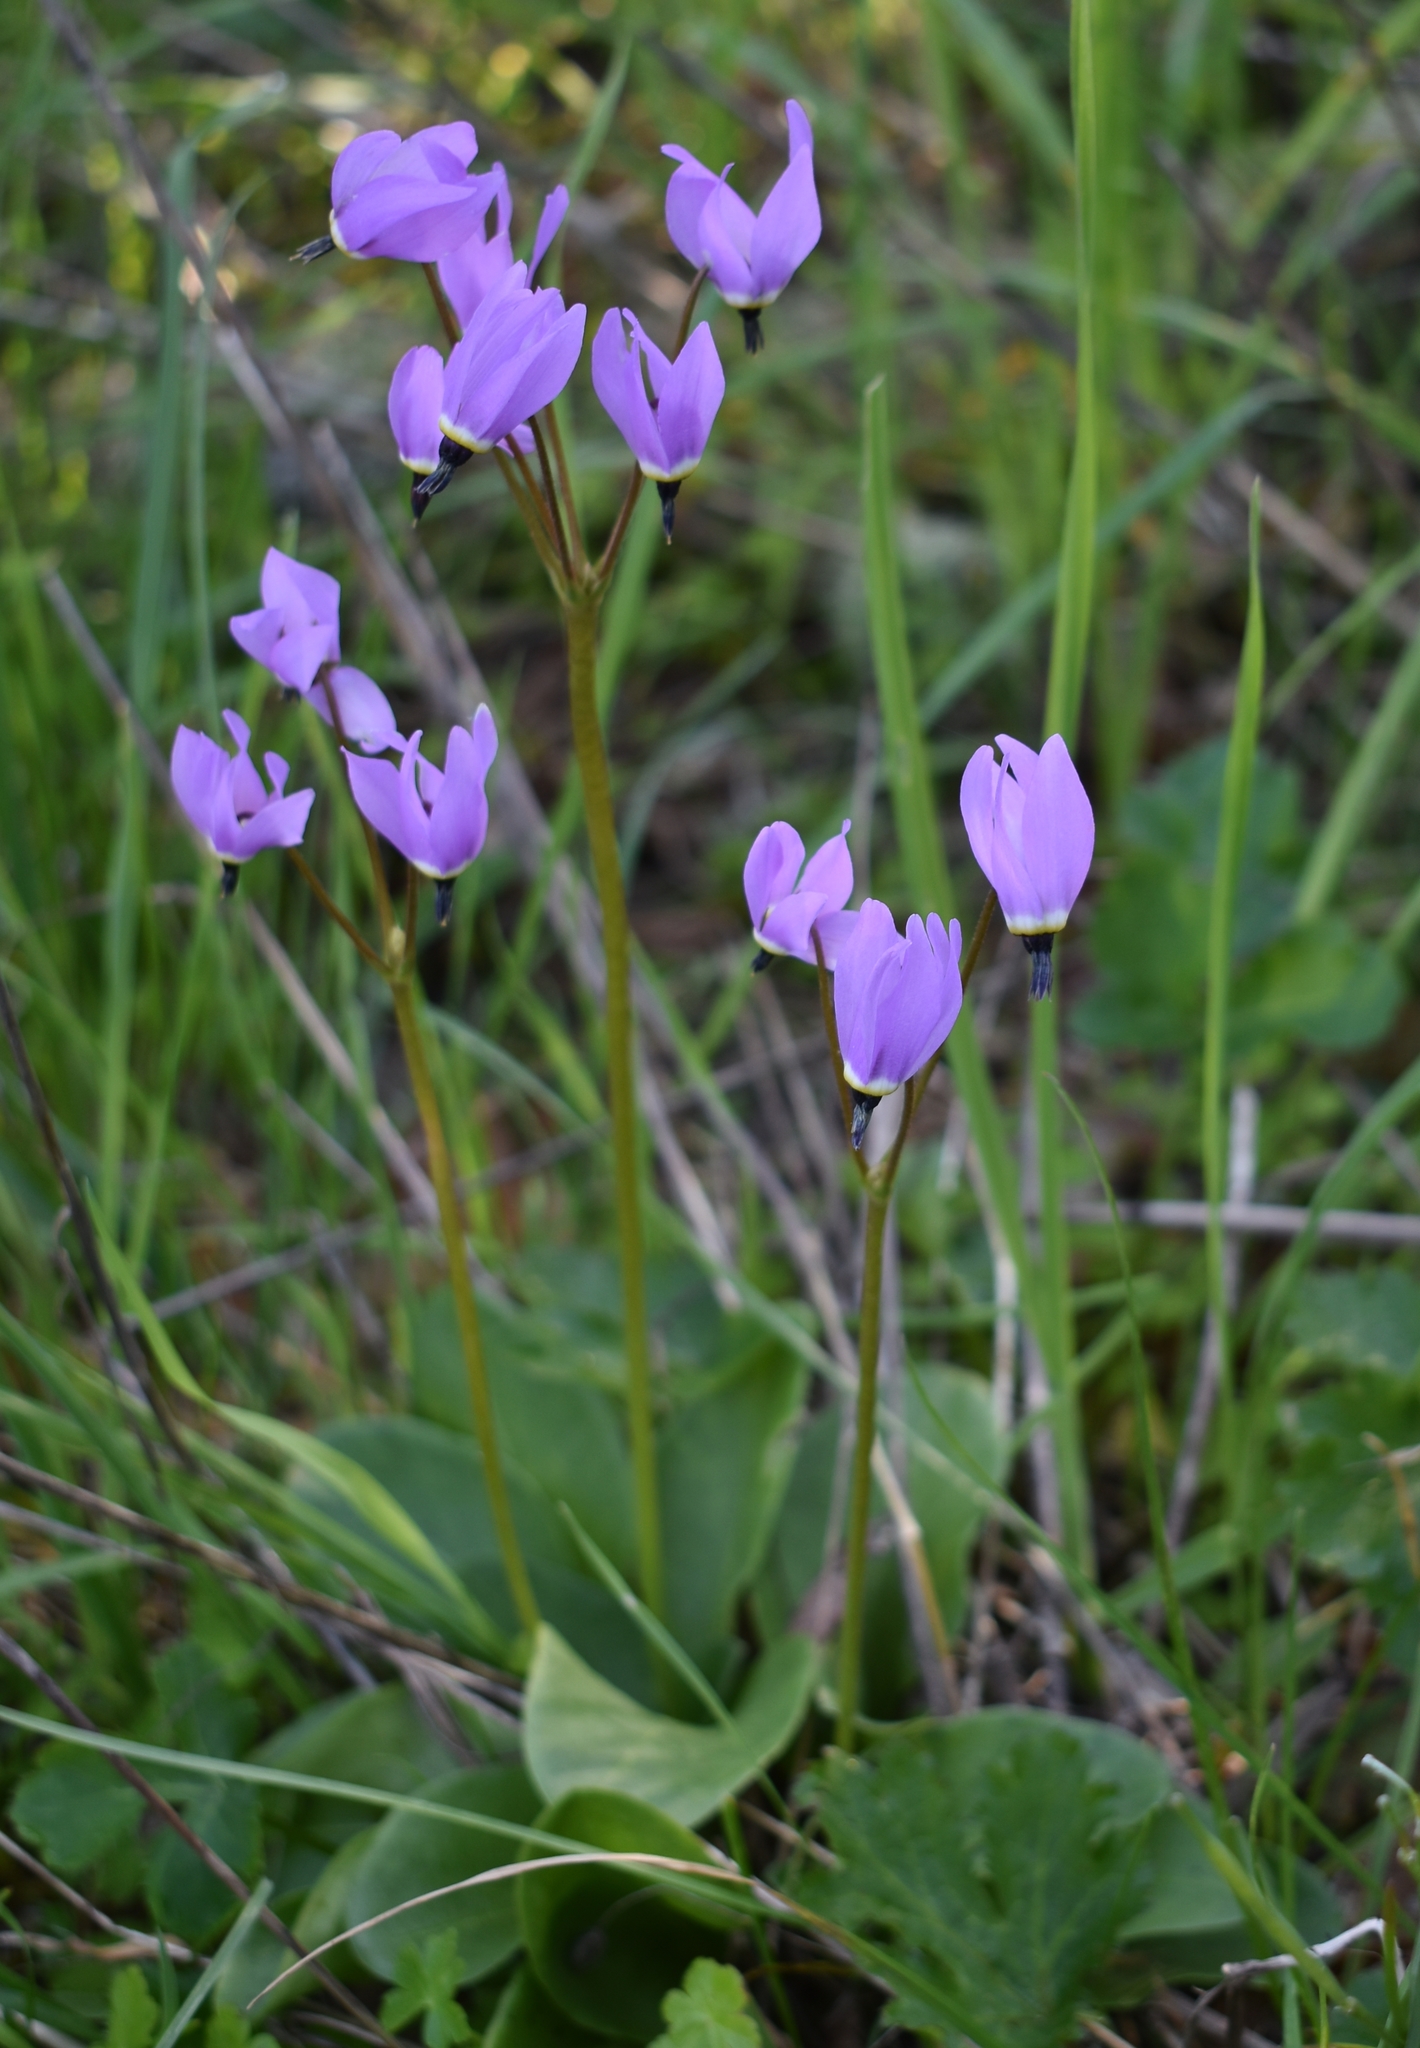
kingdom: Plantae
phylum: Tracheophyta
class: Magnoliopsida
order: Ericales
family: Primulaceae
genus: Dodecatheon
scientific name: Dodecatheon hendersonii
